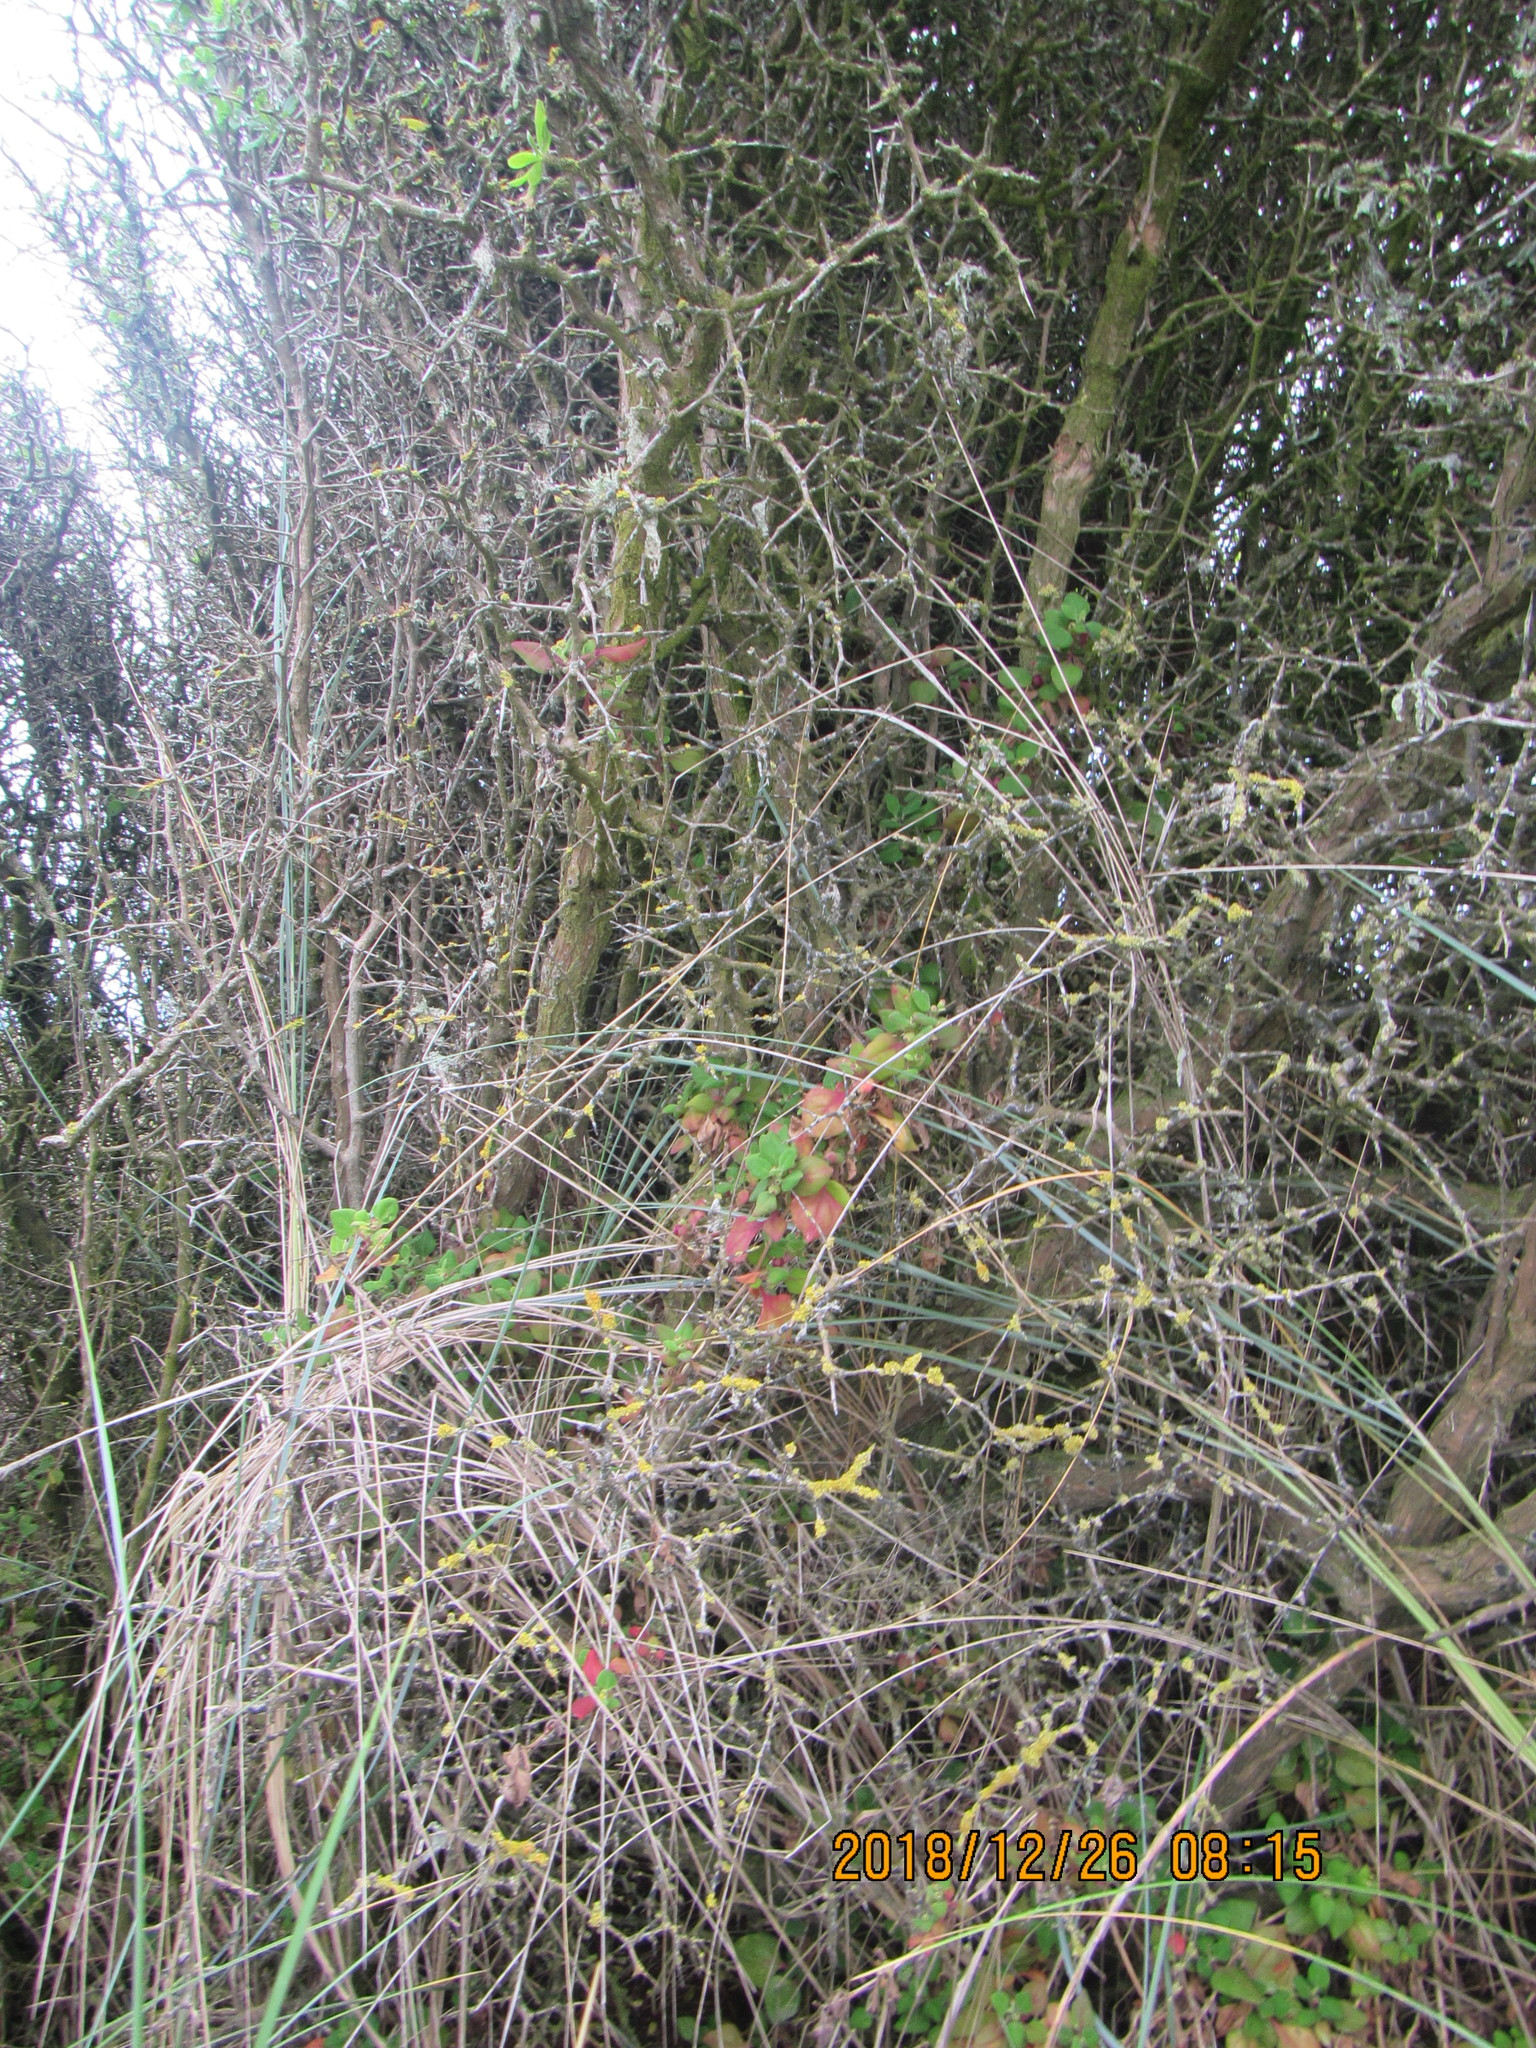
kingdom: Plantae
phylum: Tracheophyta
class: Magnoliopsida
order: Caryophyllales
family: Aizoaceae
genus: Tetragonia
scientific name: Tetragonia implexicoma
